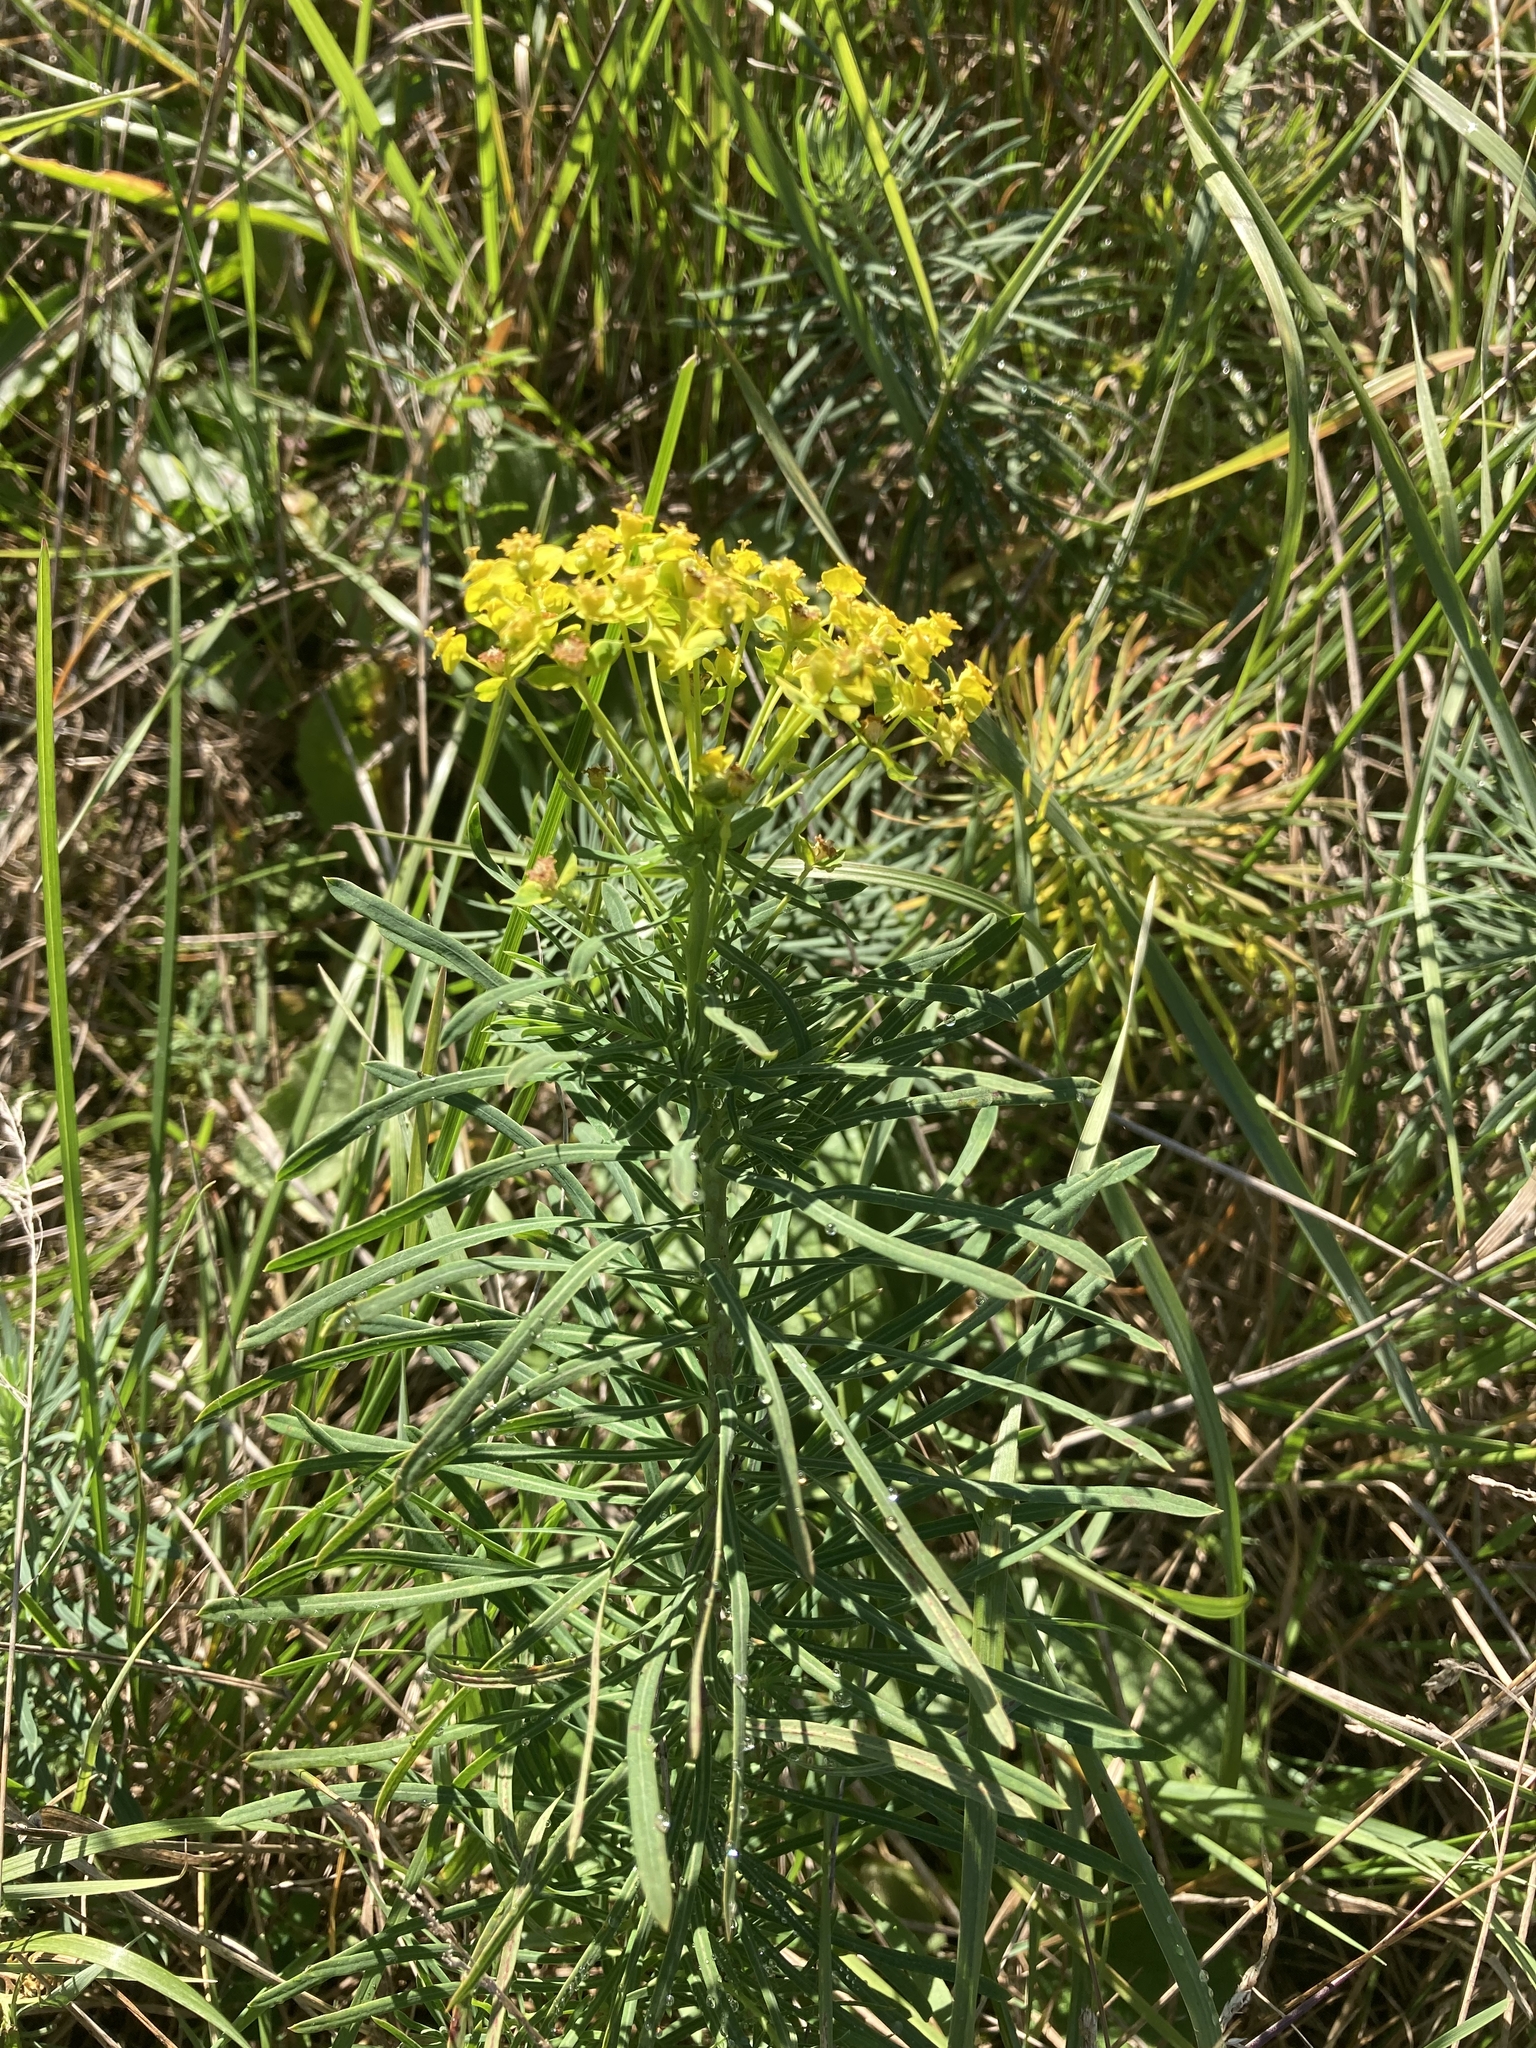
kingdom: Plantae
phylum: Tracheophyta
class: Magnoliopsida
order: Malpighiales
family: Euphorbiaceae
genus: Euphorbia
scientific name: Euphorbia cyparissias
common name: Cypress spurge
